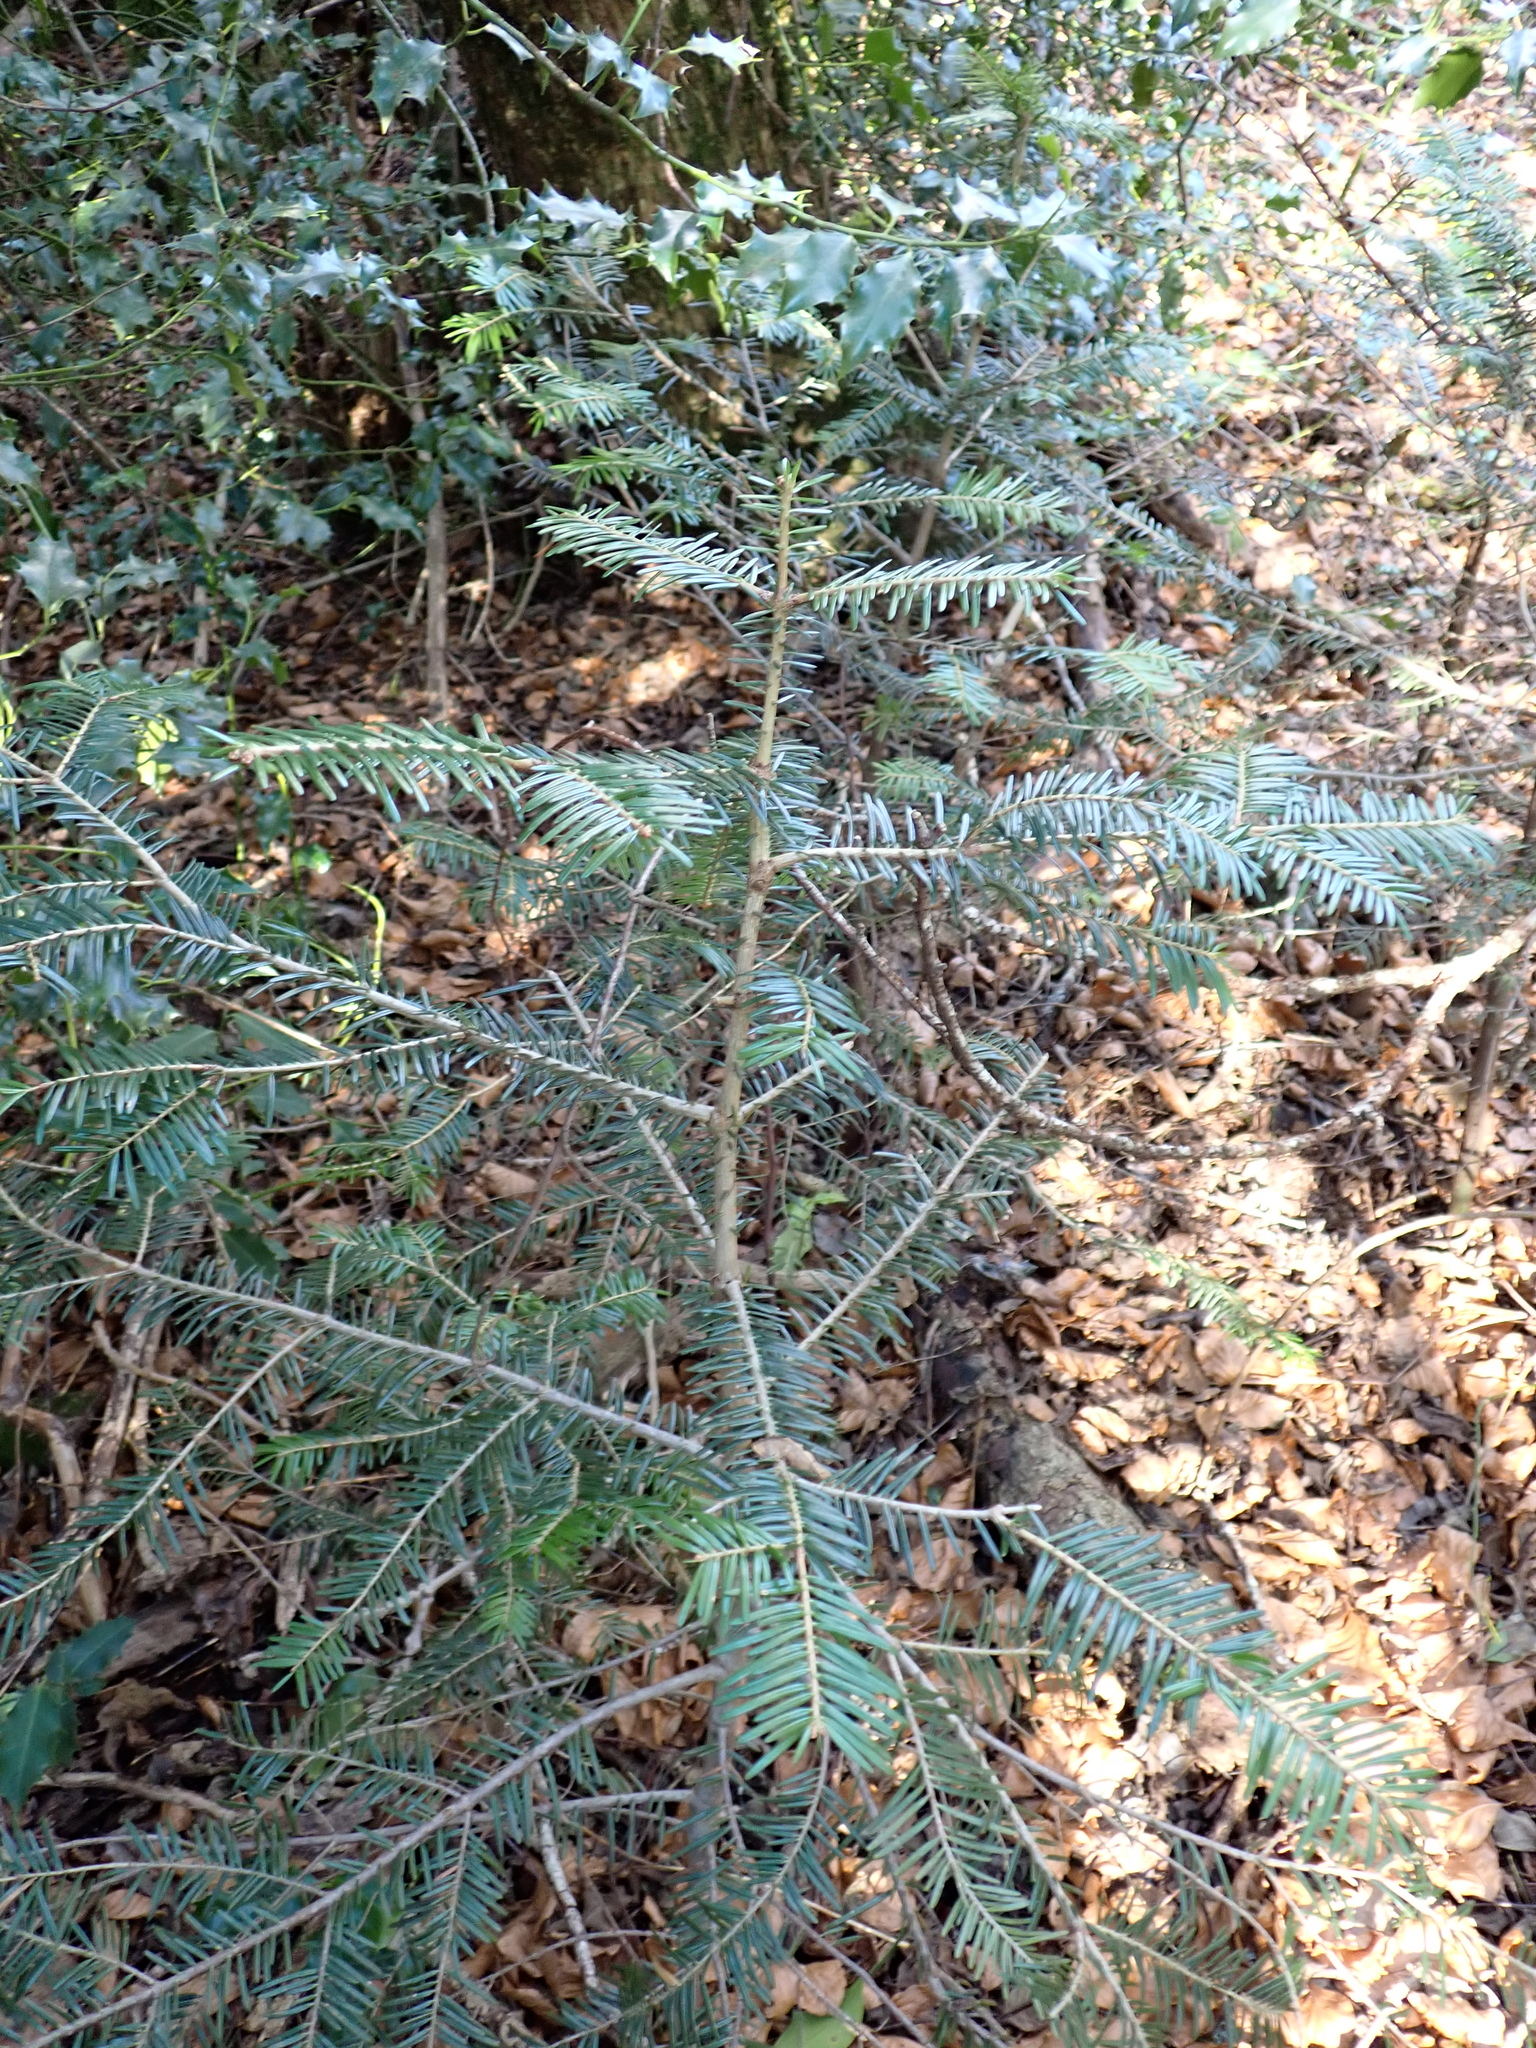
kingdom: Plantae
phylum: Tracheophyta
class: Pinopsida
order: Pinales
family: Pinaceae
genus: Abies
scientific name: Abies alba
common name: Silver fir
